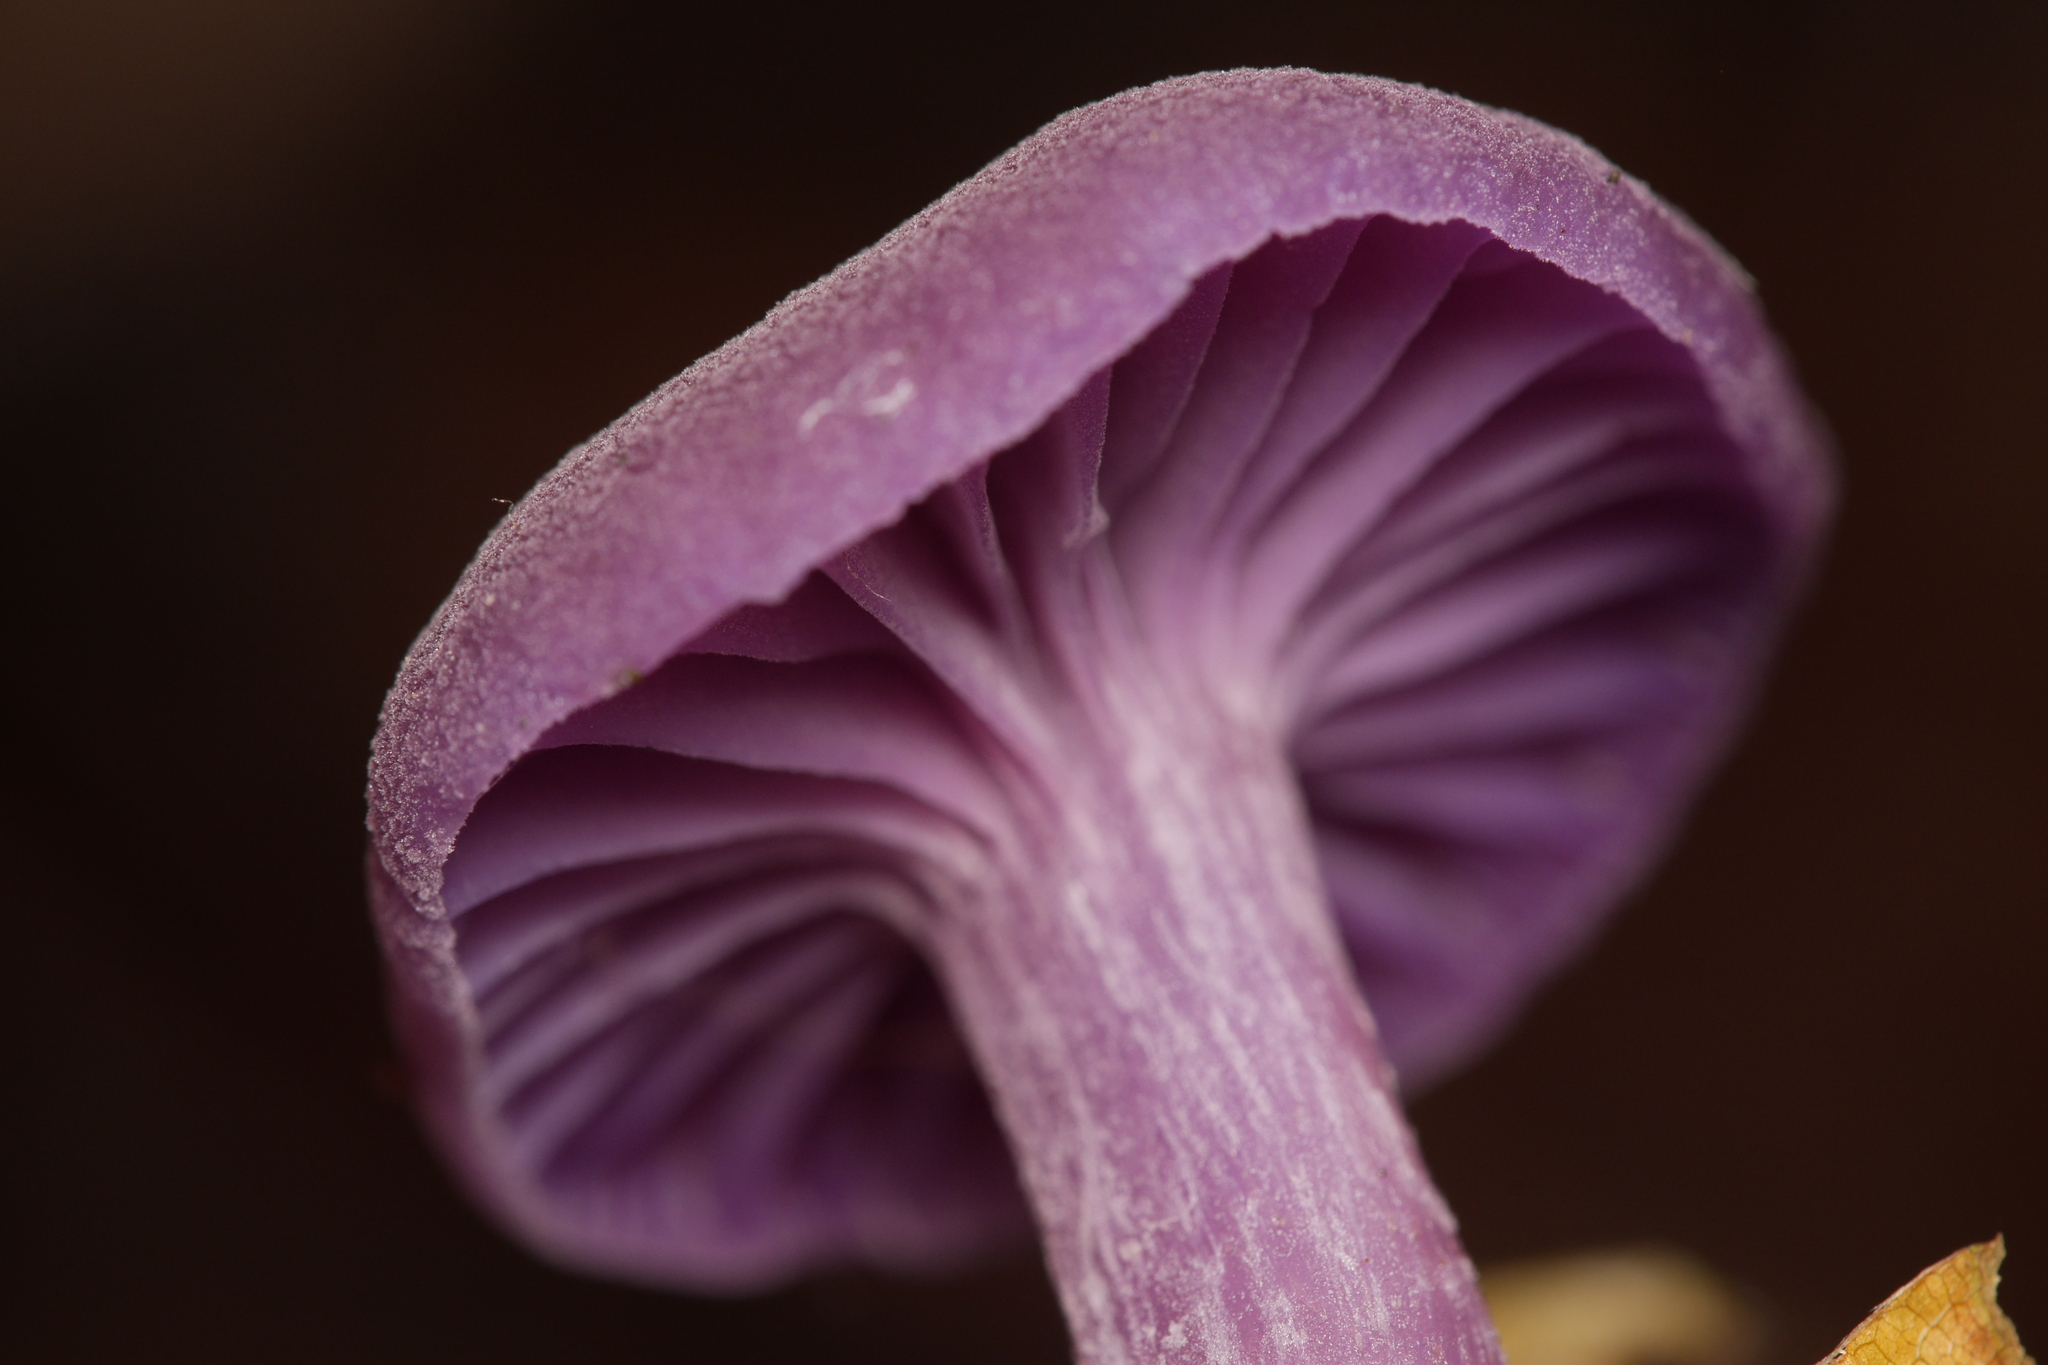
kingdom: Fungi
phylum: Basidiomycota
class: Agaricomycetes
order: Agaricales
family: Hydnangiaceae
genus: Laccaria
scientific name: Laccaria amethystina
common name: Amethyst deceiver
